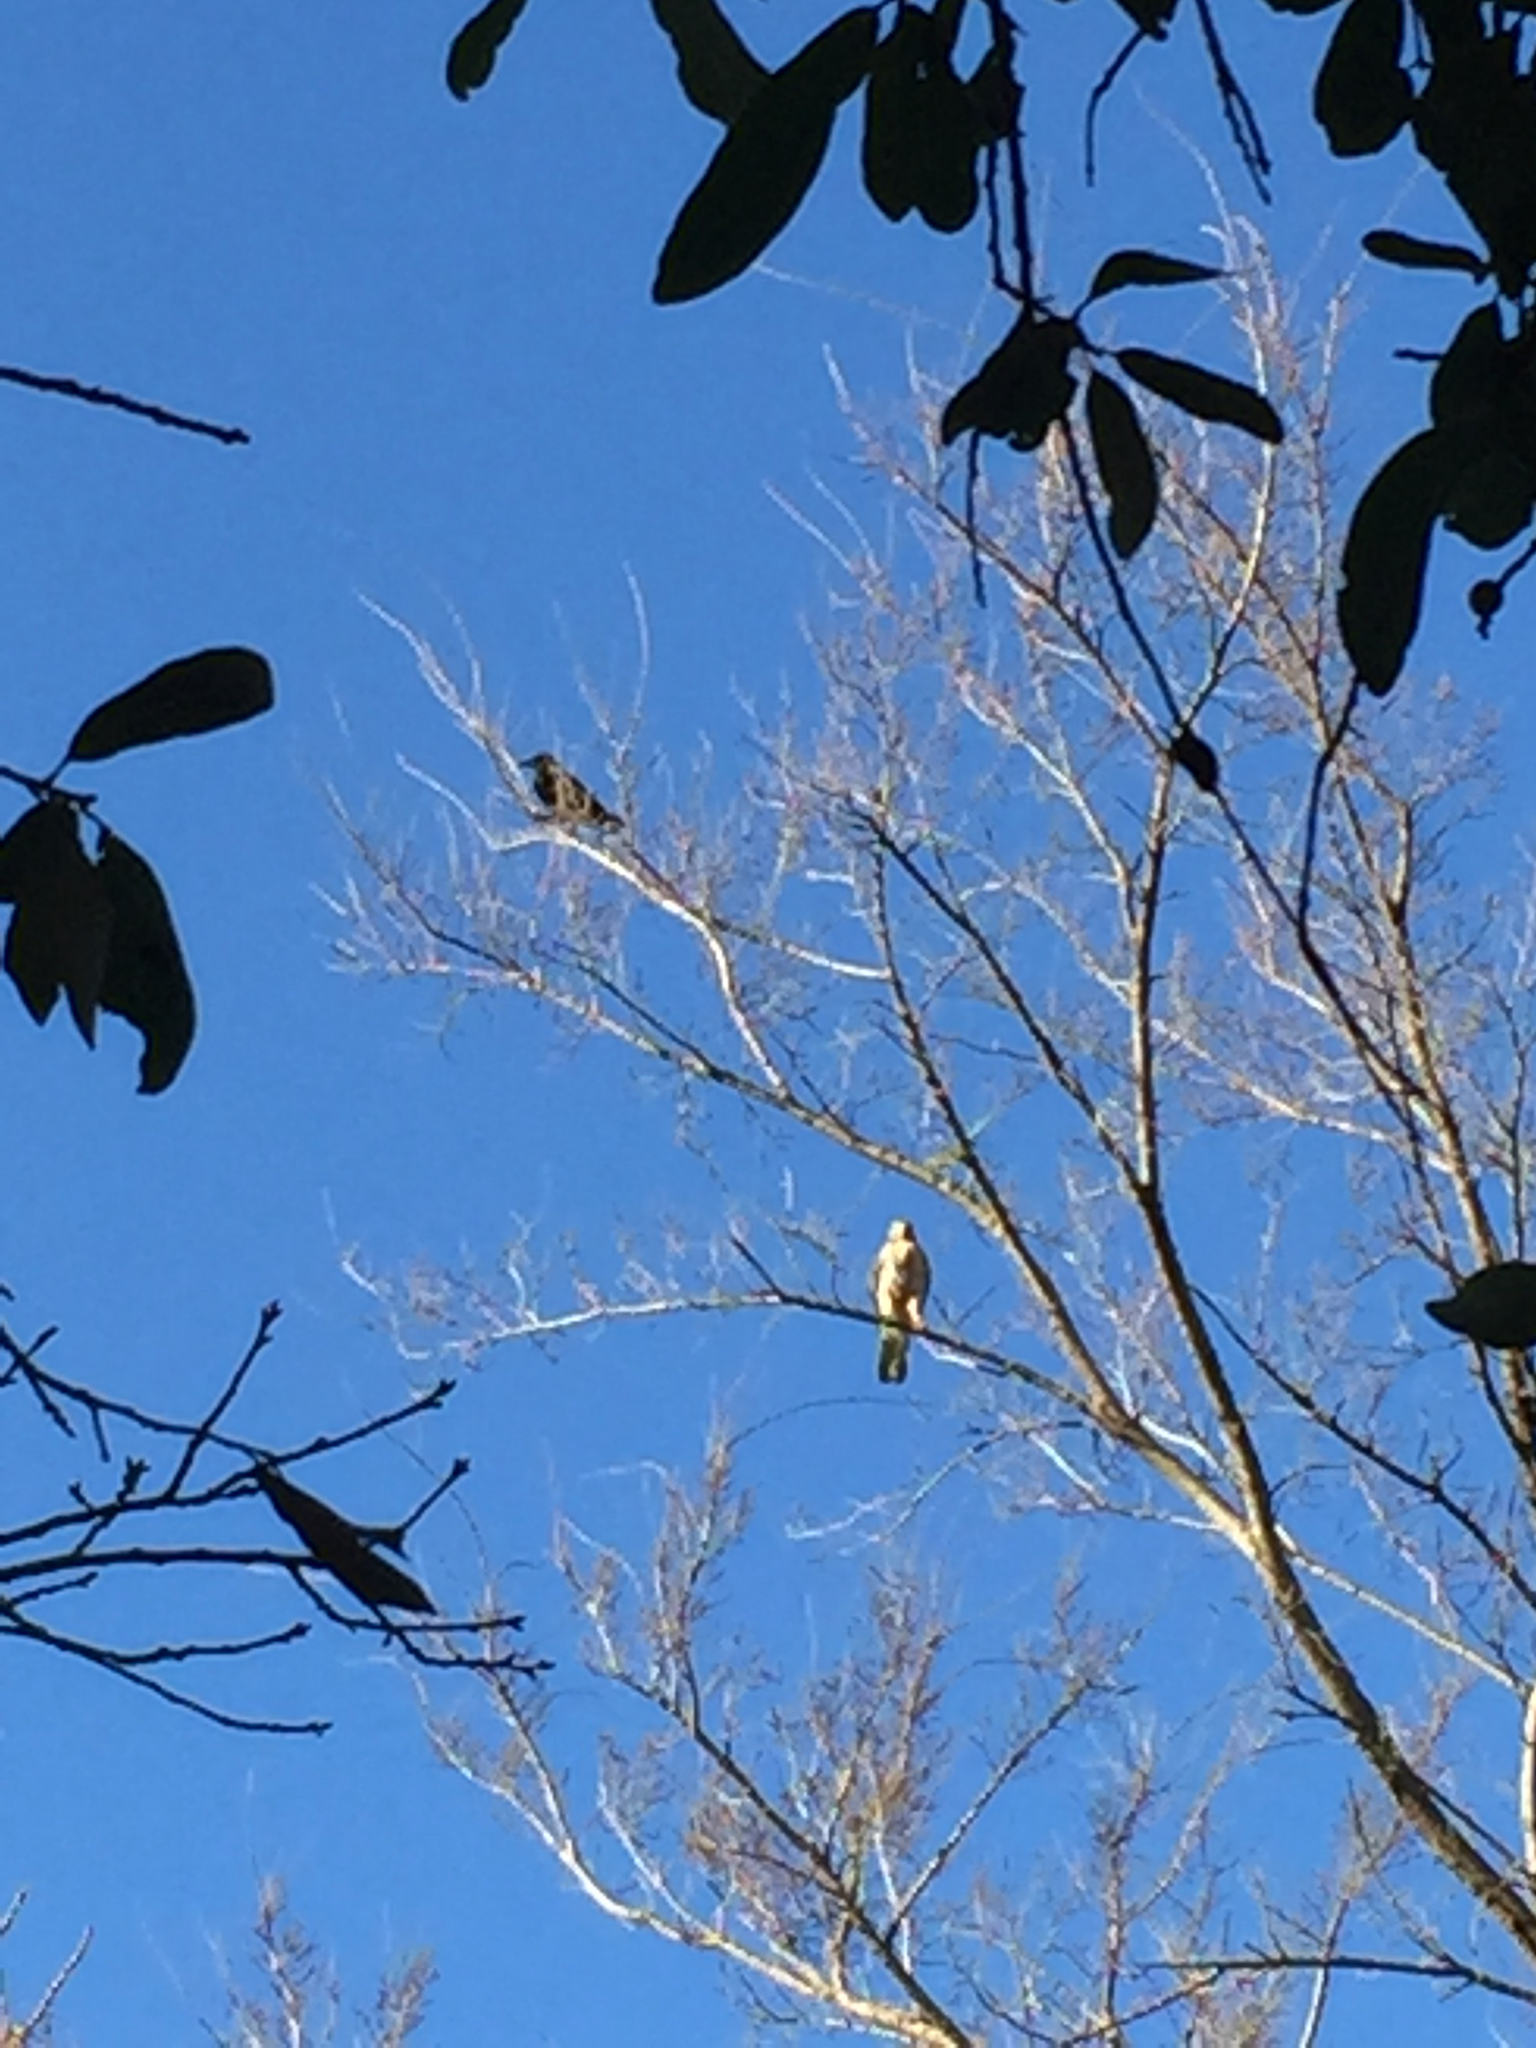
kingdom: Animalia
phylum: Chordata
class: Aves
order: Passeriformes
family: Corvidae
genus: Corvus
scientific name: Corvus brachyrhynchos
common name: American crow
